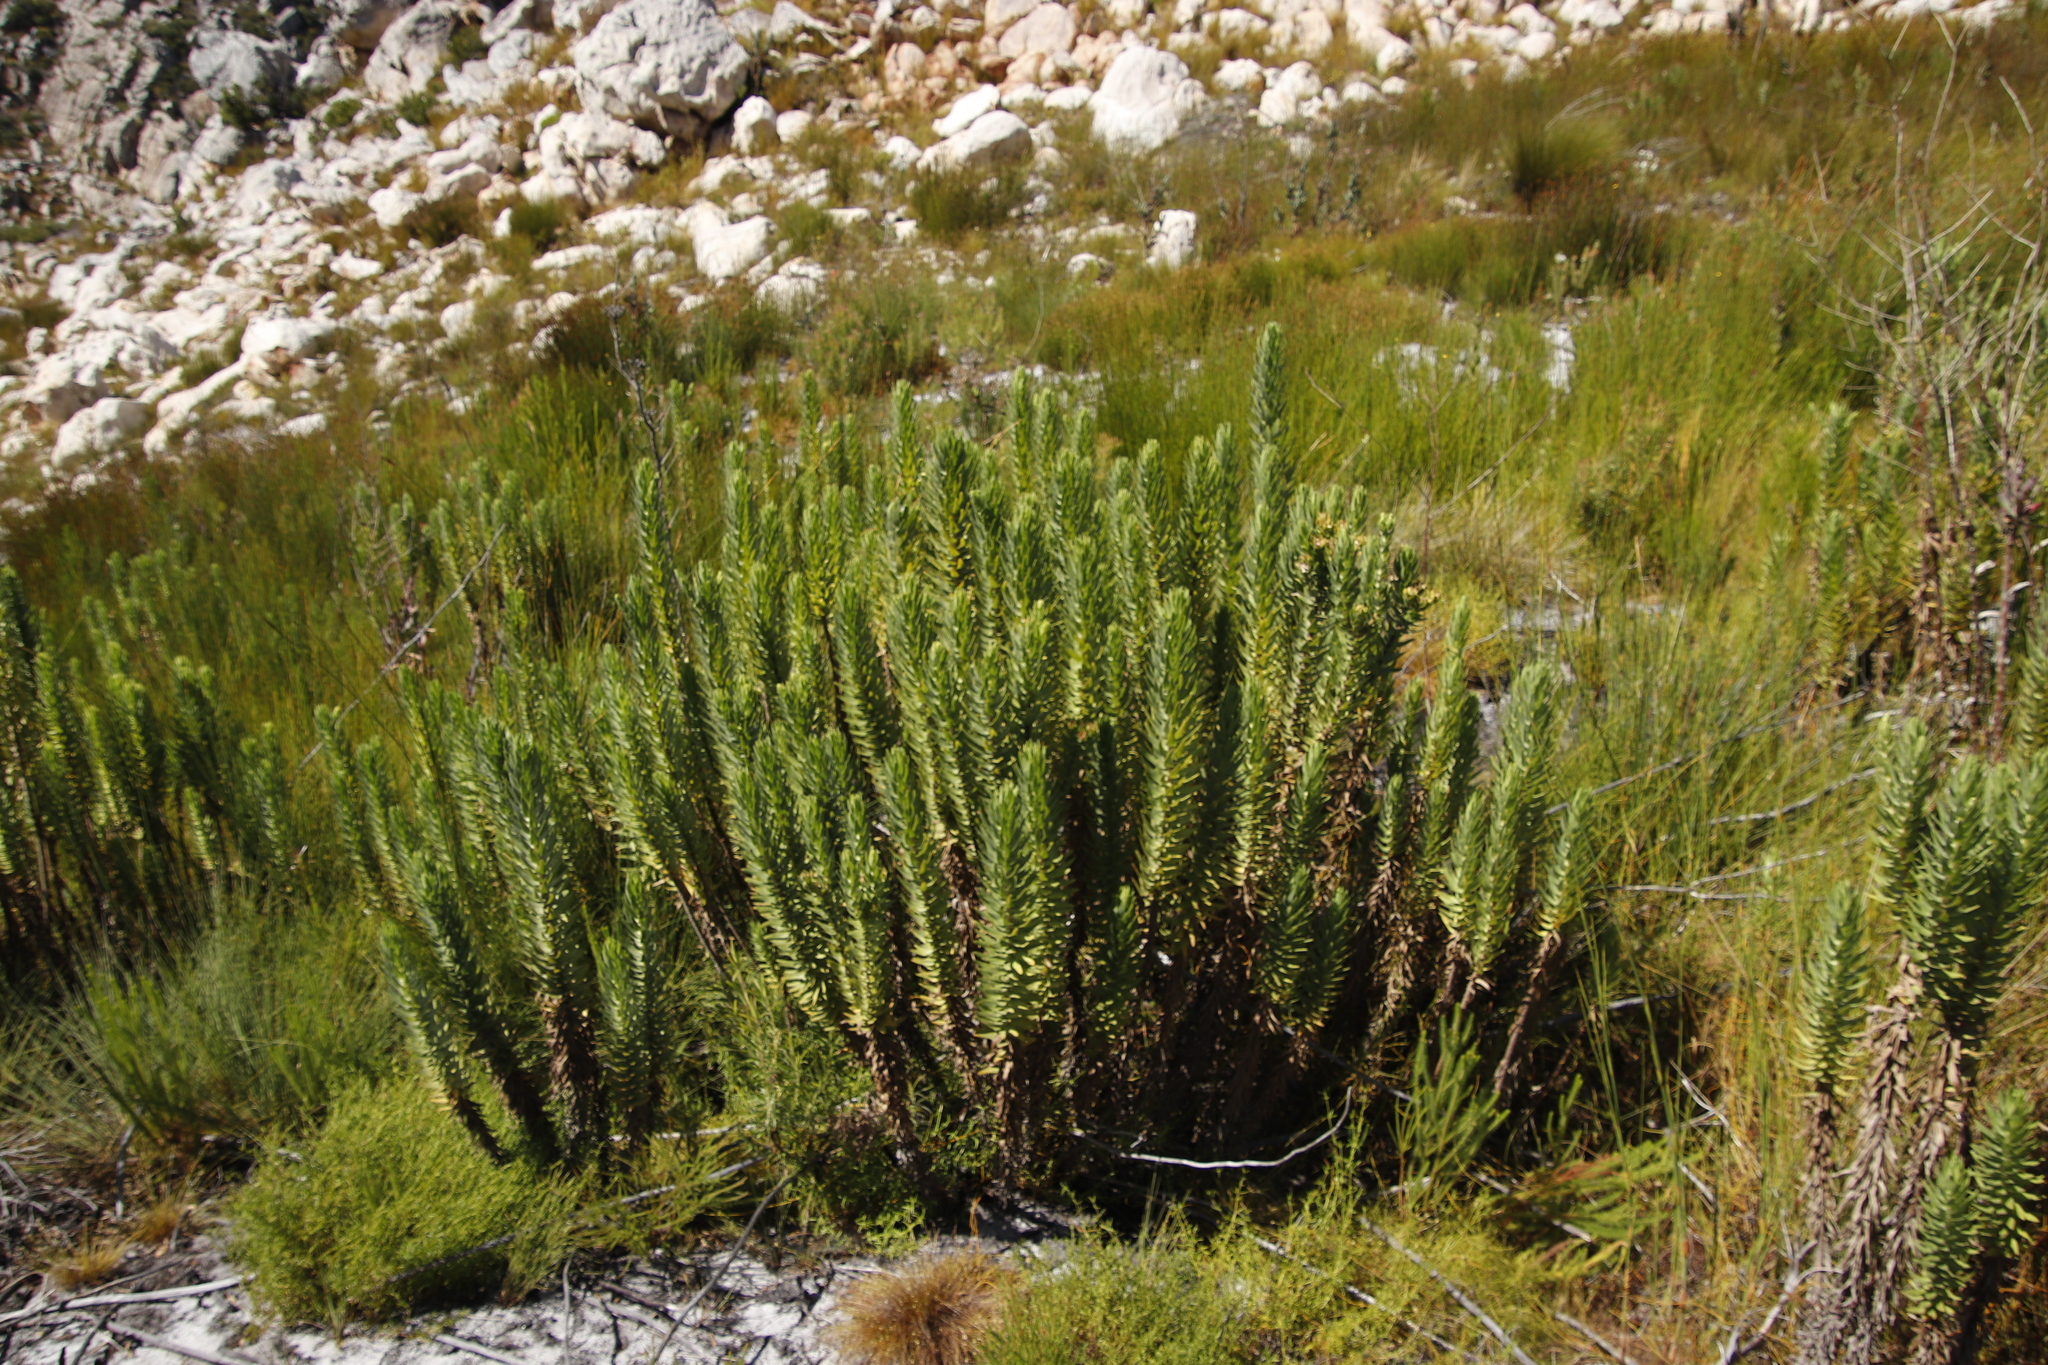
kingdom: Plantae
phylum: Tracheophyta
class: Magnoliopsida
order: Asterales
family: Asteraceae
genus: Osmitopsis
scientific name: Osmitopsis asteriscoides
